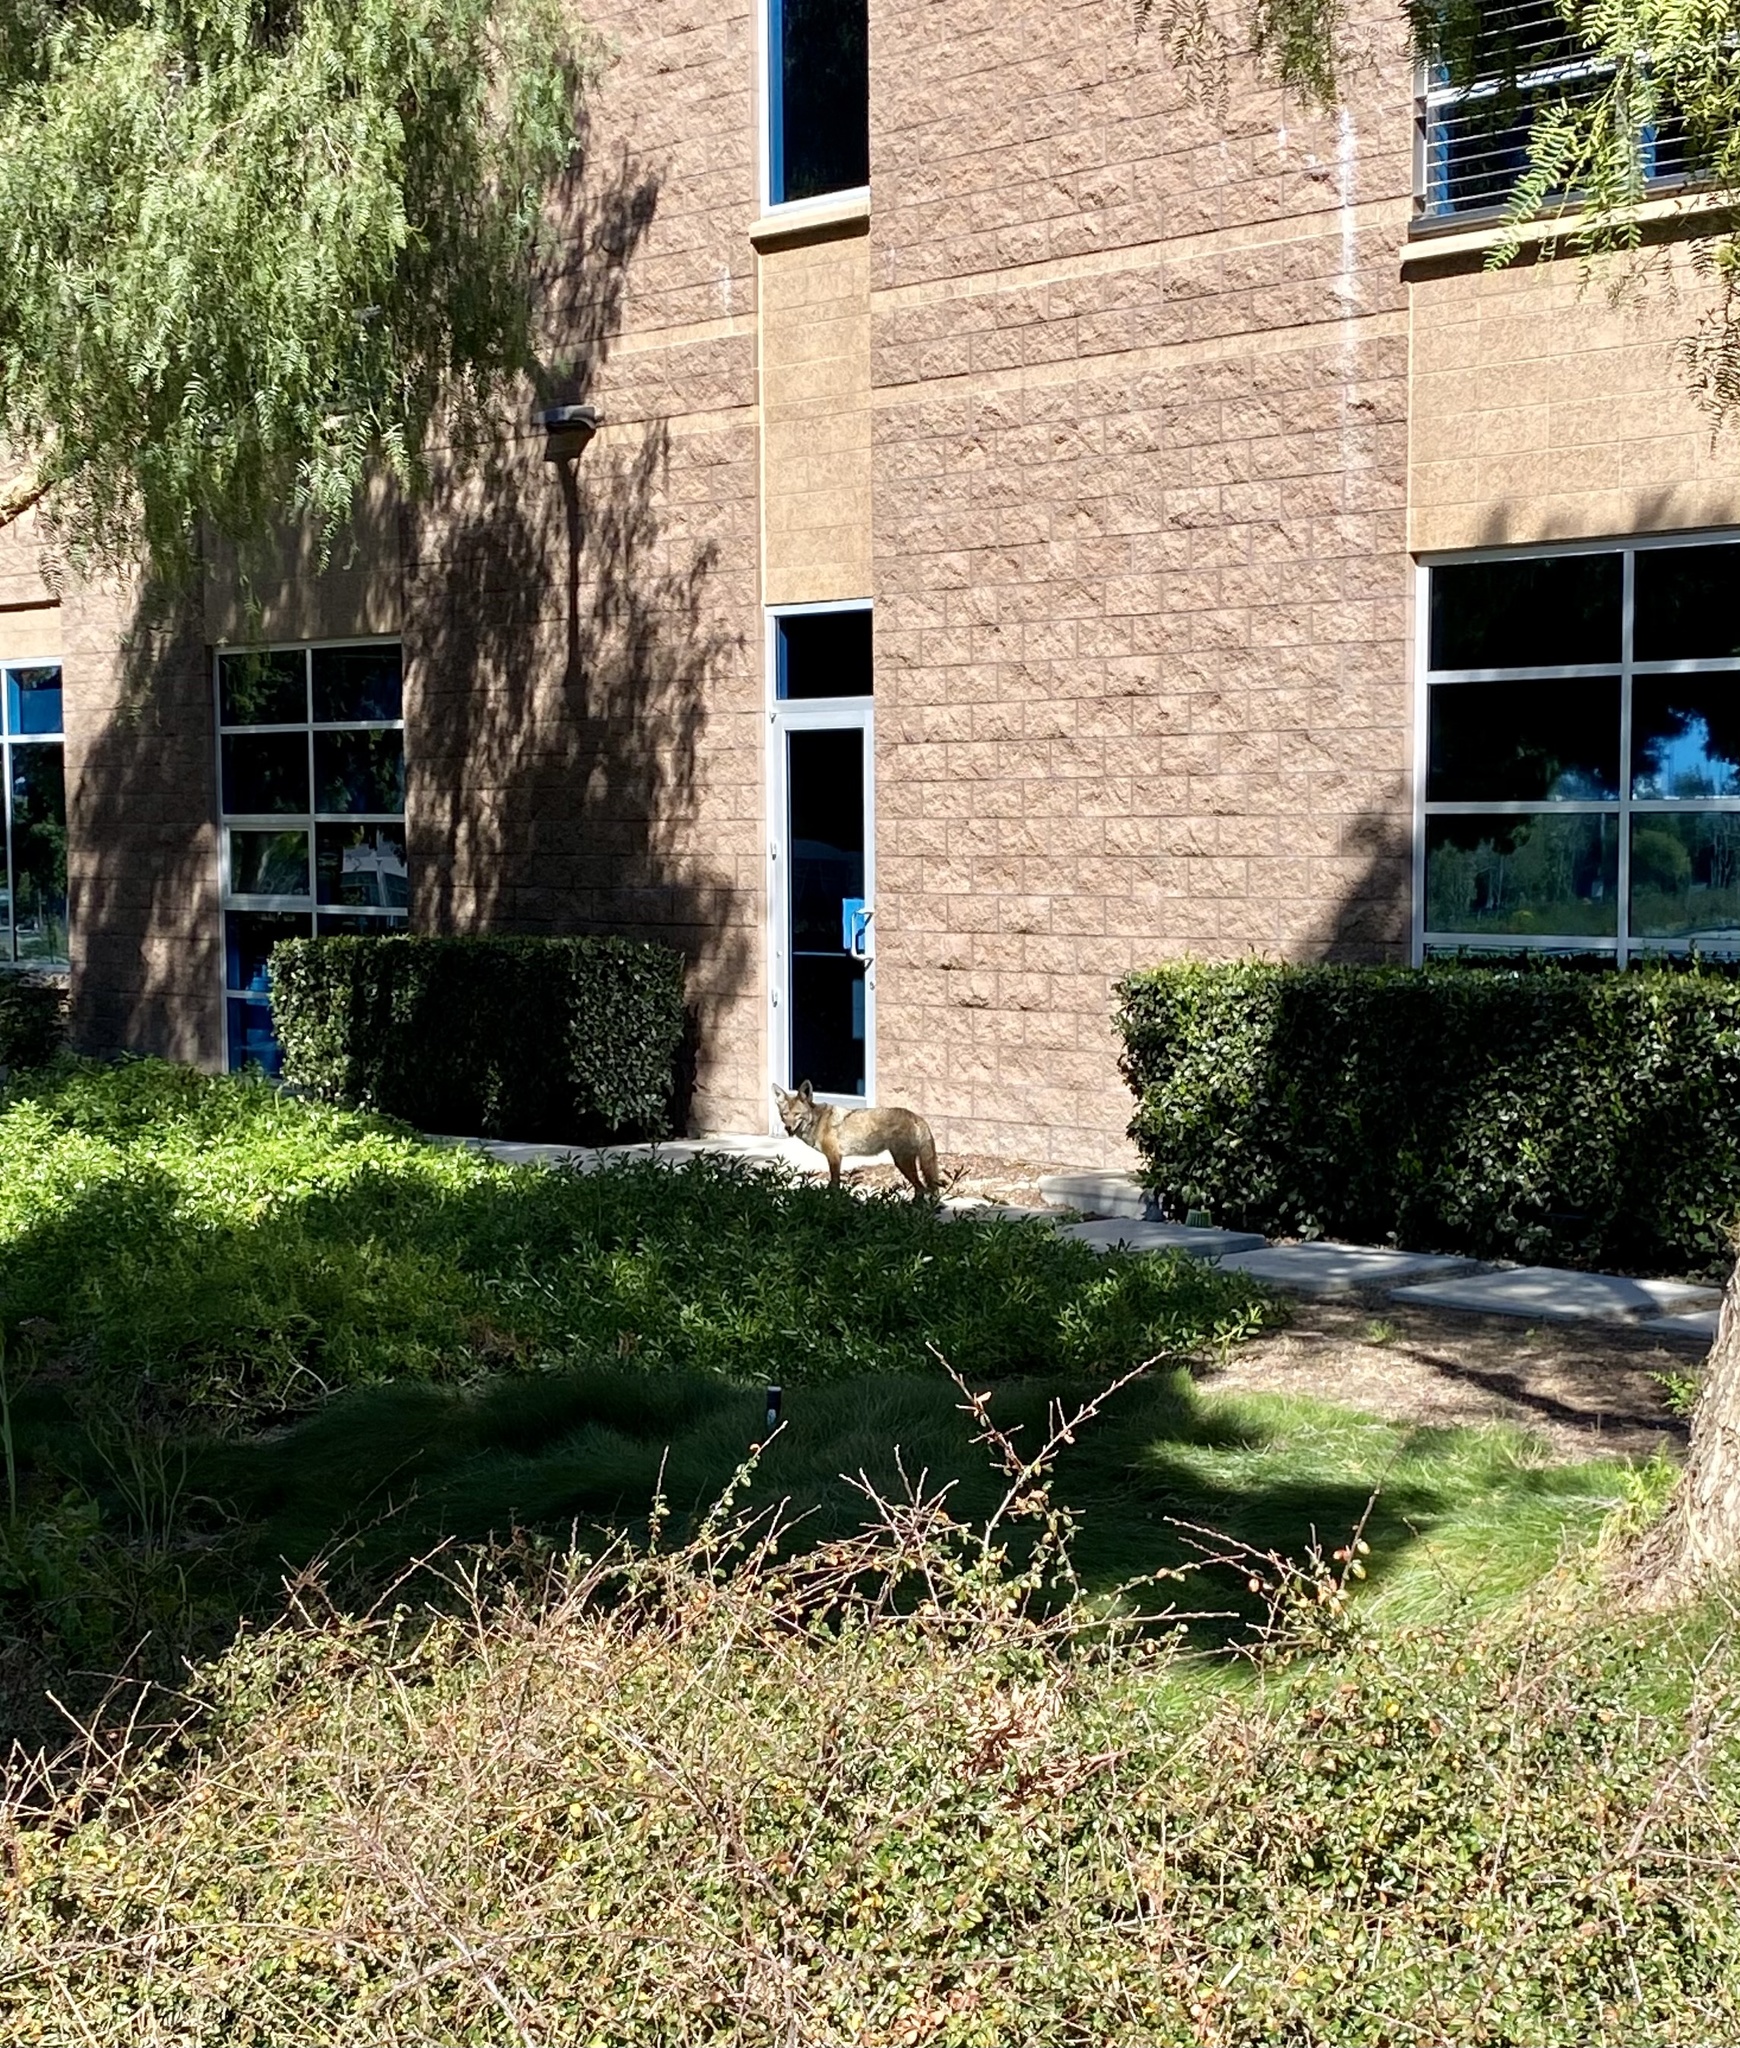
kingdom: Animalia
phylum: Chordata
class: Mammalia
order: Carnivora
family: Canidae
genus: Canis
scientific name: Canis latrans
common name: Coyote
